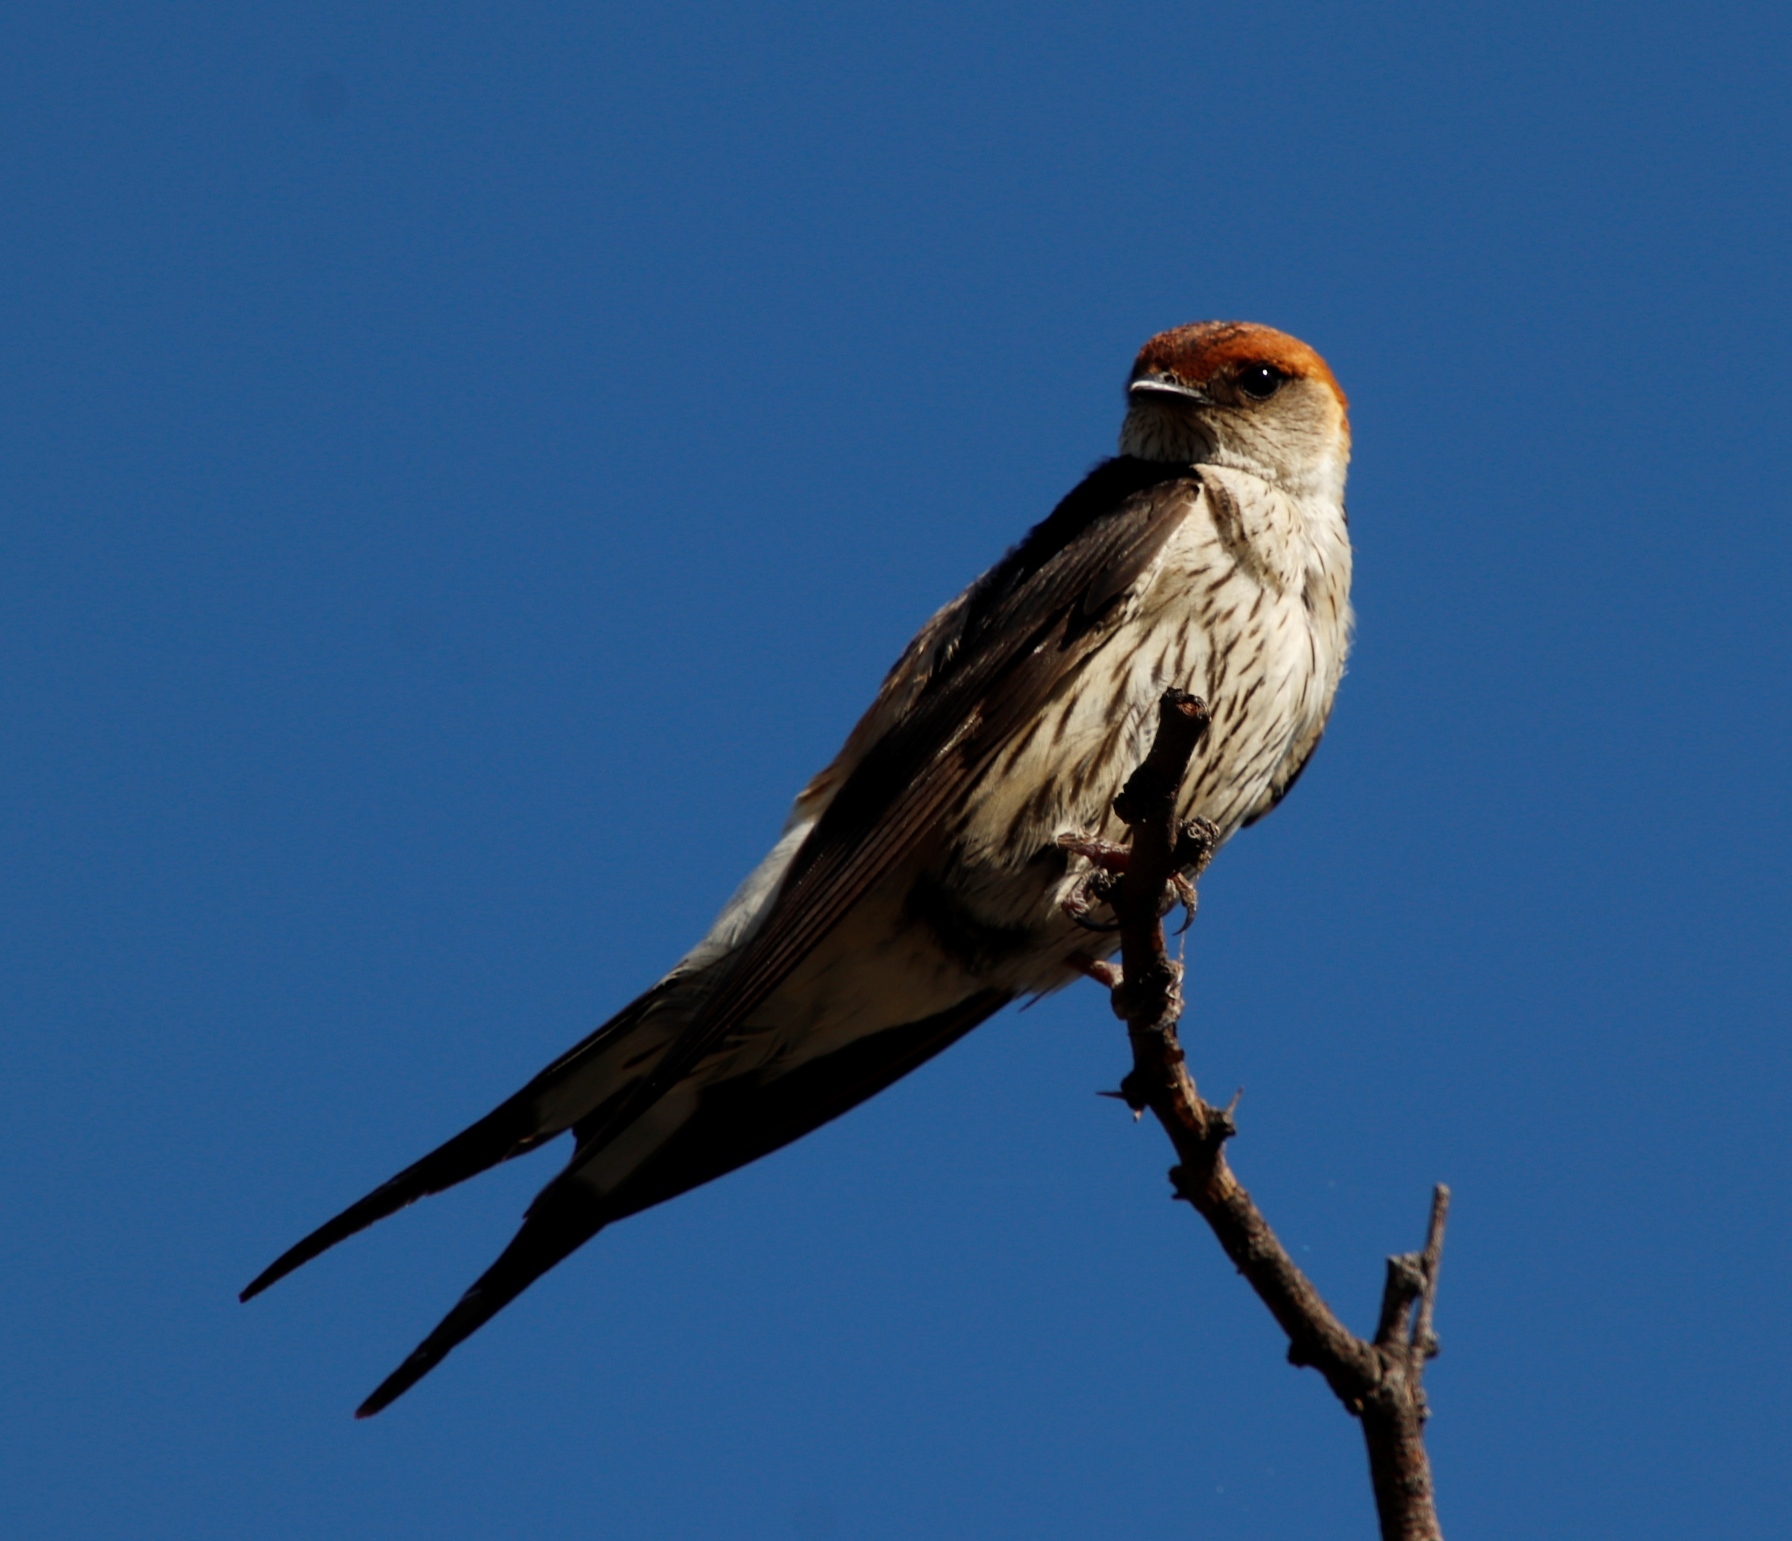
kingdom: Animalia
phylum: Chordata
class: Aves
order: Passeriformes
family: Hirundinidae
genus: Cecropis
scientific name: Cecropis cucullata
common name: Greater striped-swallow
